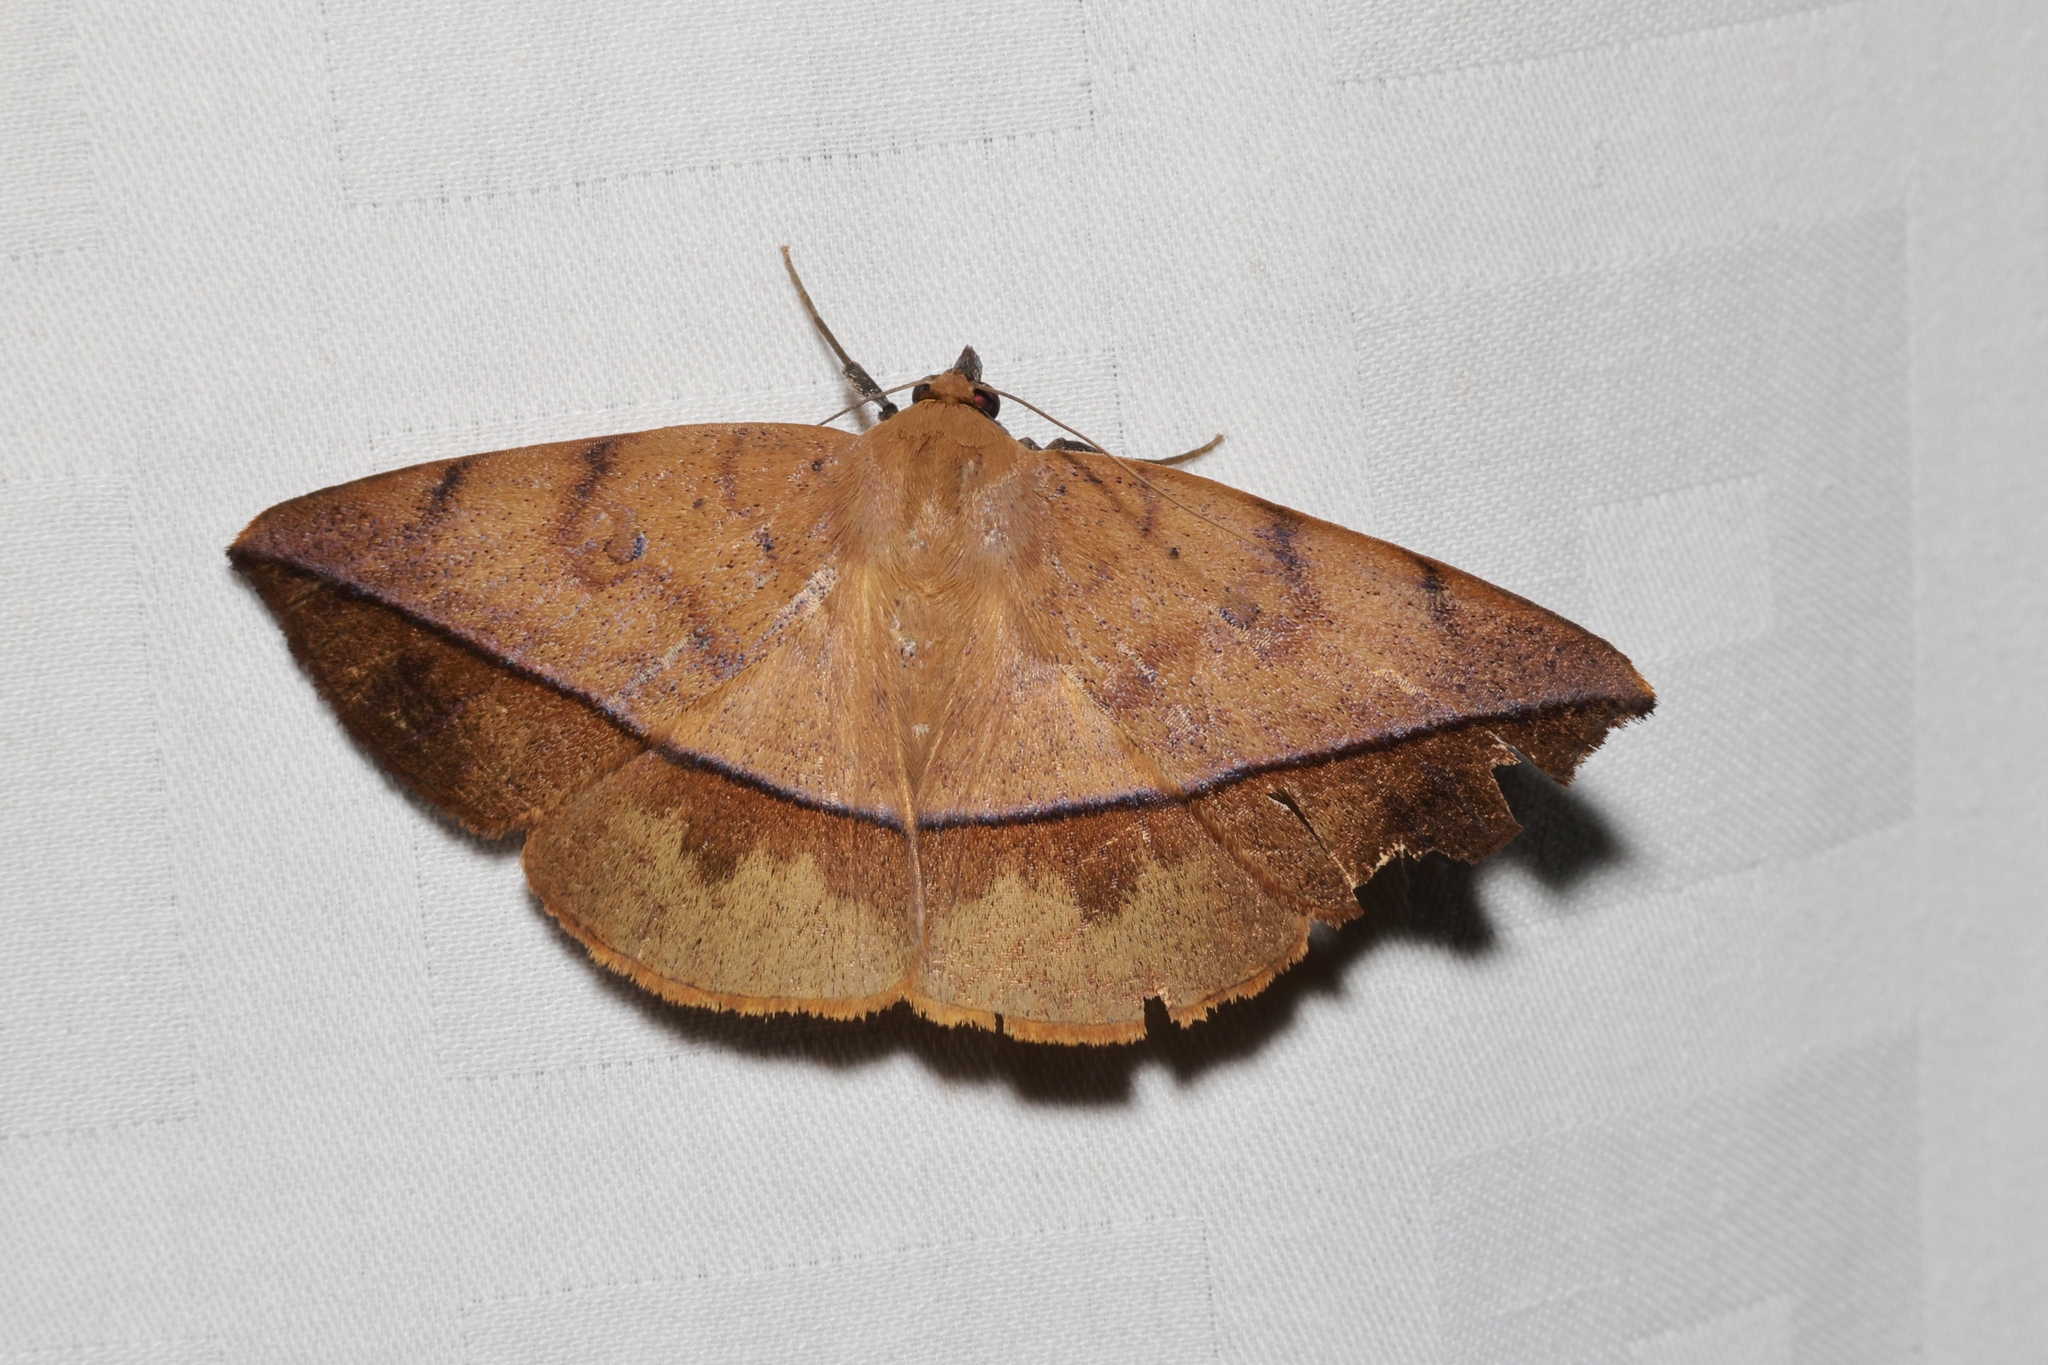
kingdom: Animalia
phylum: Arthropoda
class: Insecta
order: Lepidoptera
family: Erebidae
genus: Hamodes
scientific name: Hamodes pendleburyi
